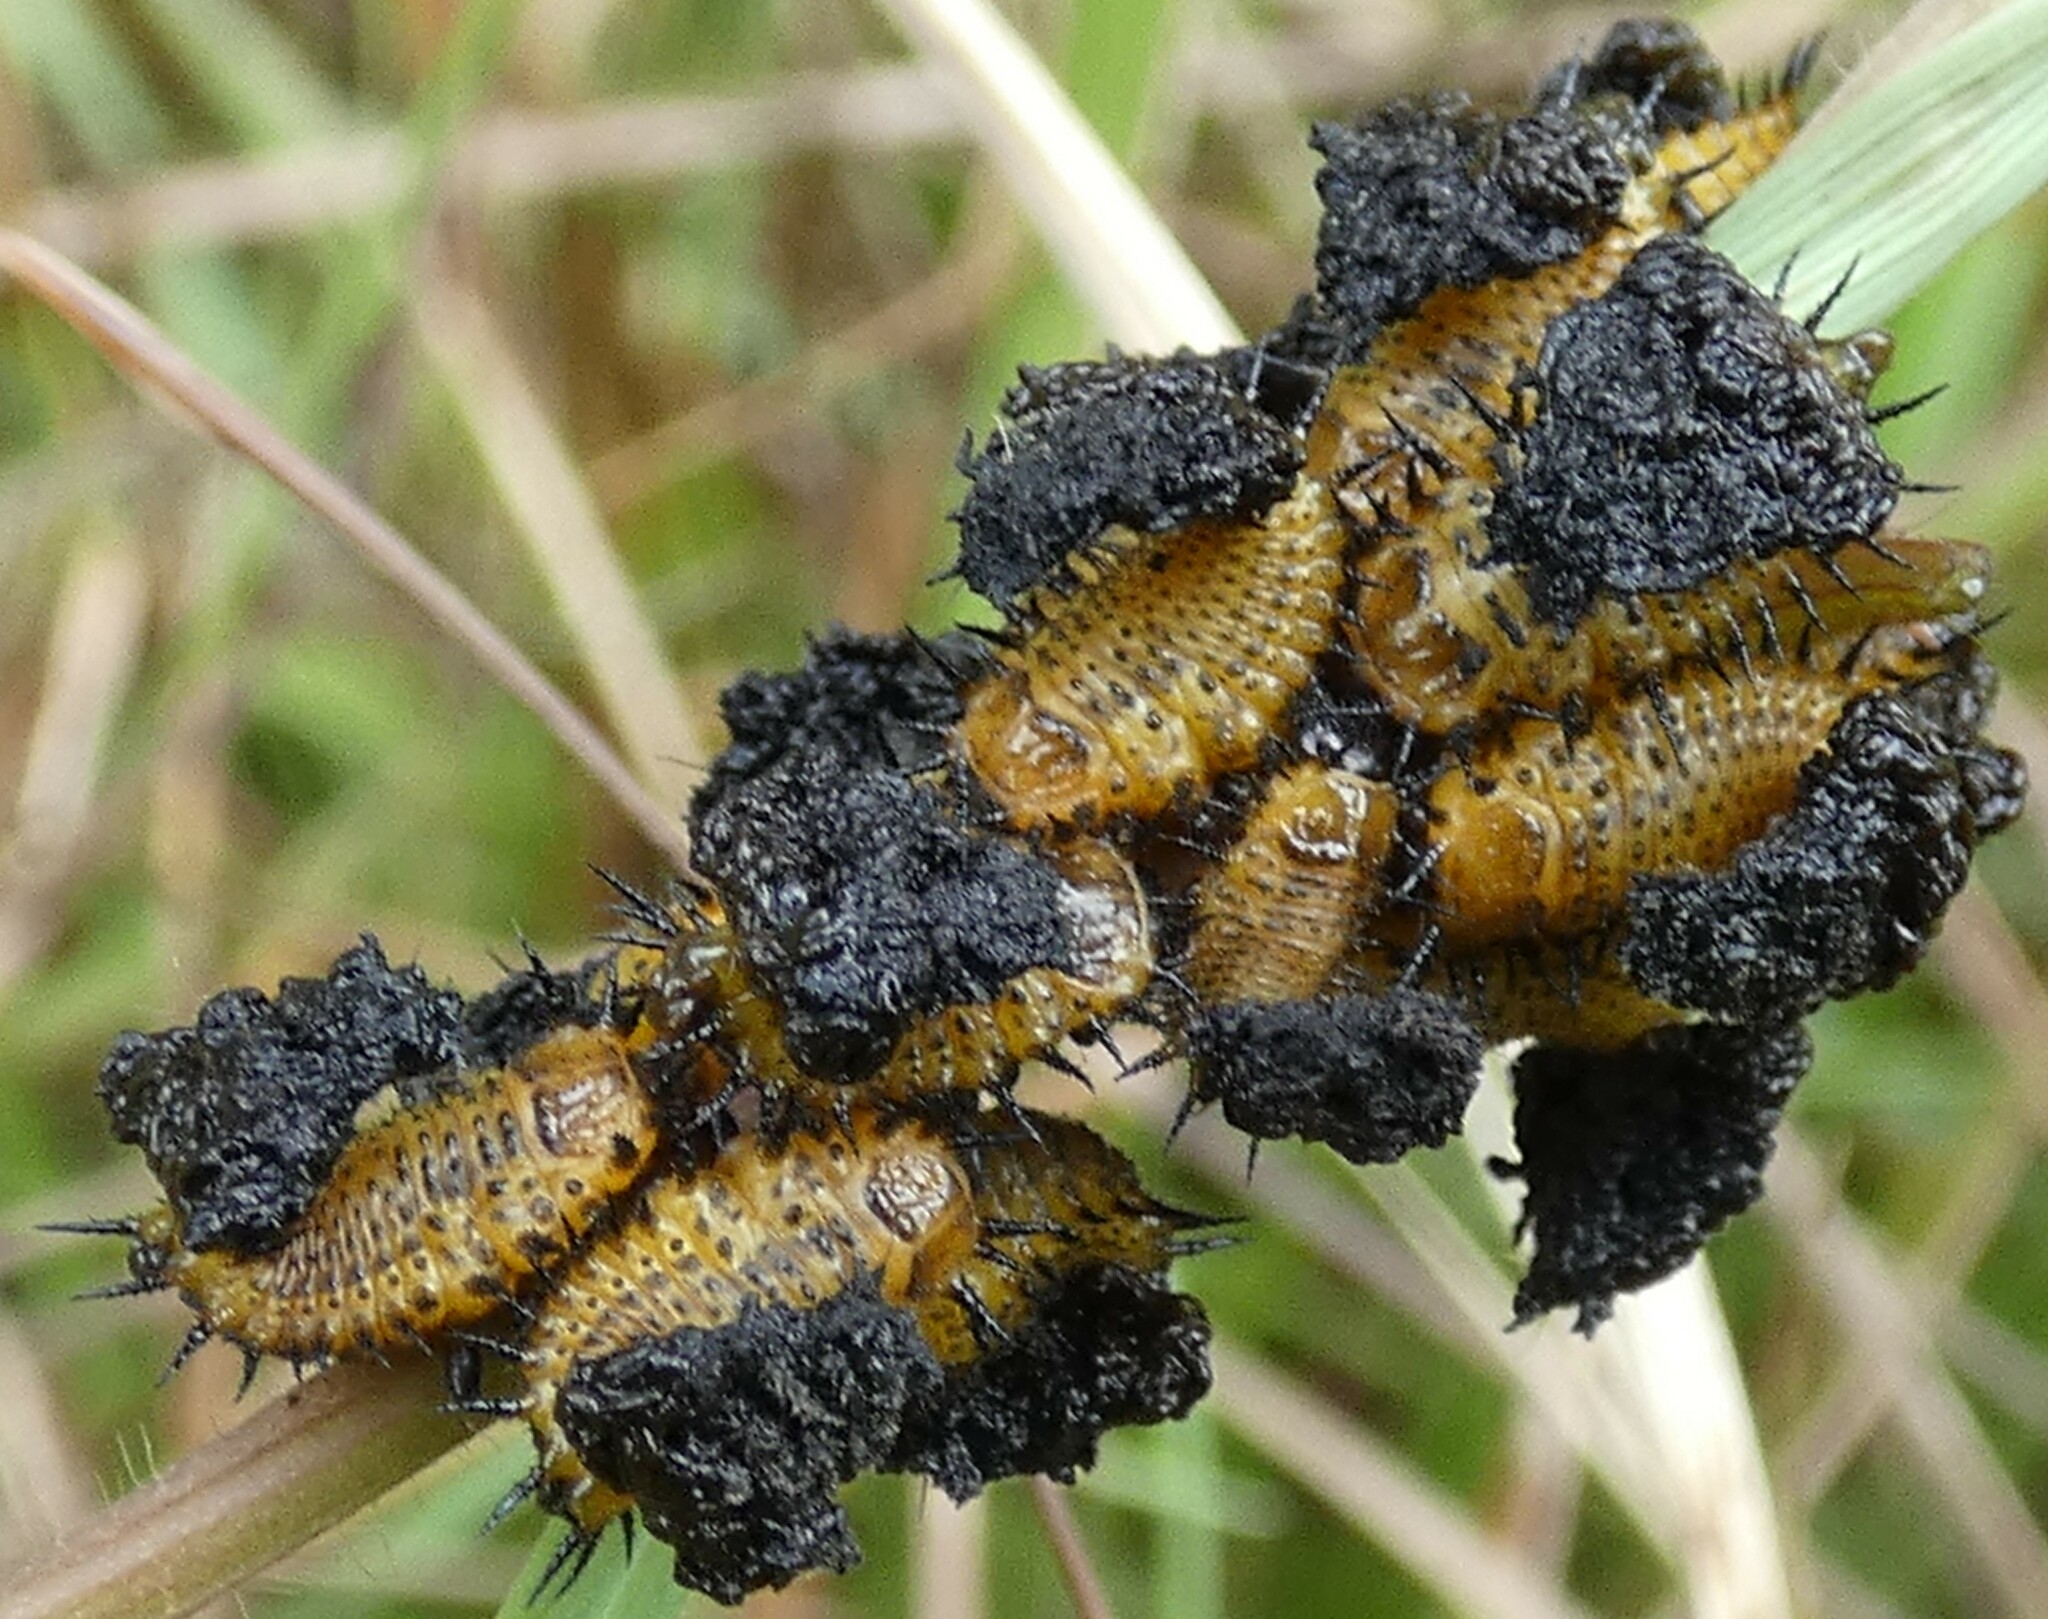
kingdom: Animalia
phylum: Arthropoda
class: Insecta
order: Coleoptera
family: Chrysomelidae
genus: Chelymorpha
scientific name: Chelymorpha cassidea
